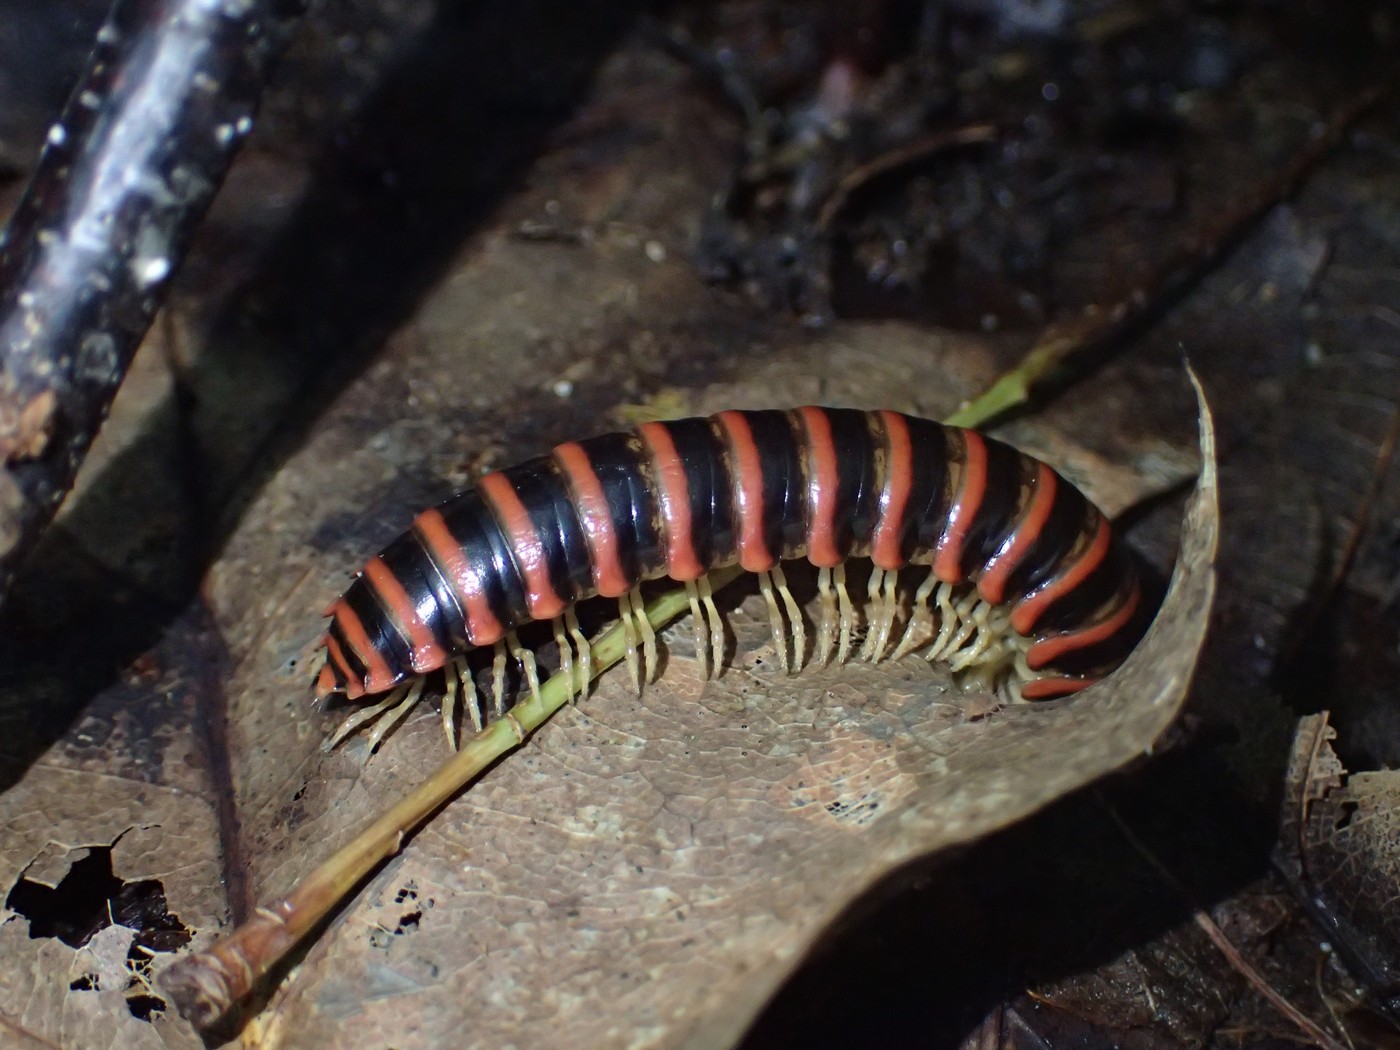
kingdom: Animalia
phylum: Arthropoda
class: Diplopoda
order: Polydesmida
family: Xystodesmidae
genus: Howellaria
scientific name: Howellaria deturkiana
